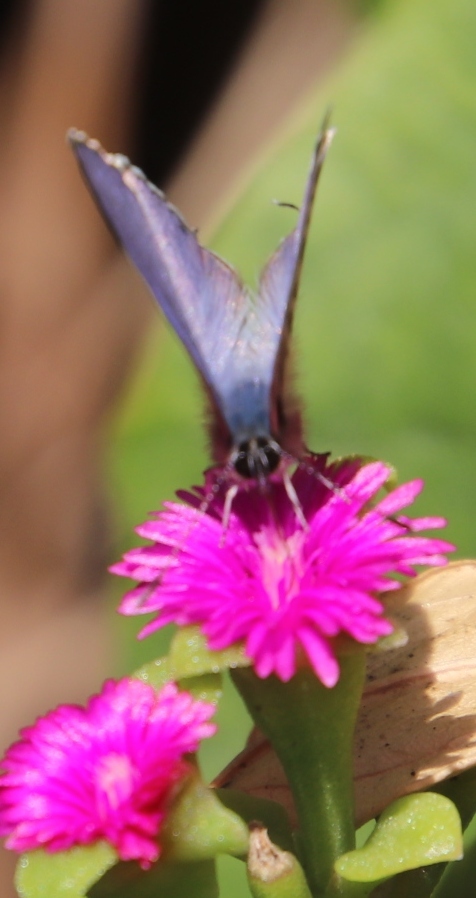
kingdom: Animalia
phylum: Arthropoda
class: Insecta
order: Lepidoptera
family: Lycaenidae
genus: Leptotes
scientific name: Leptotes
